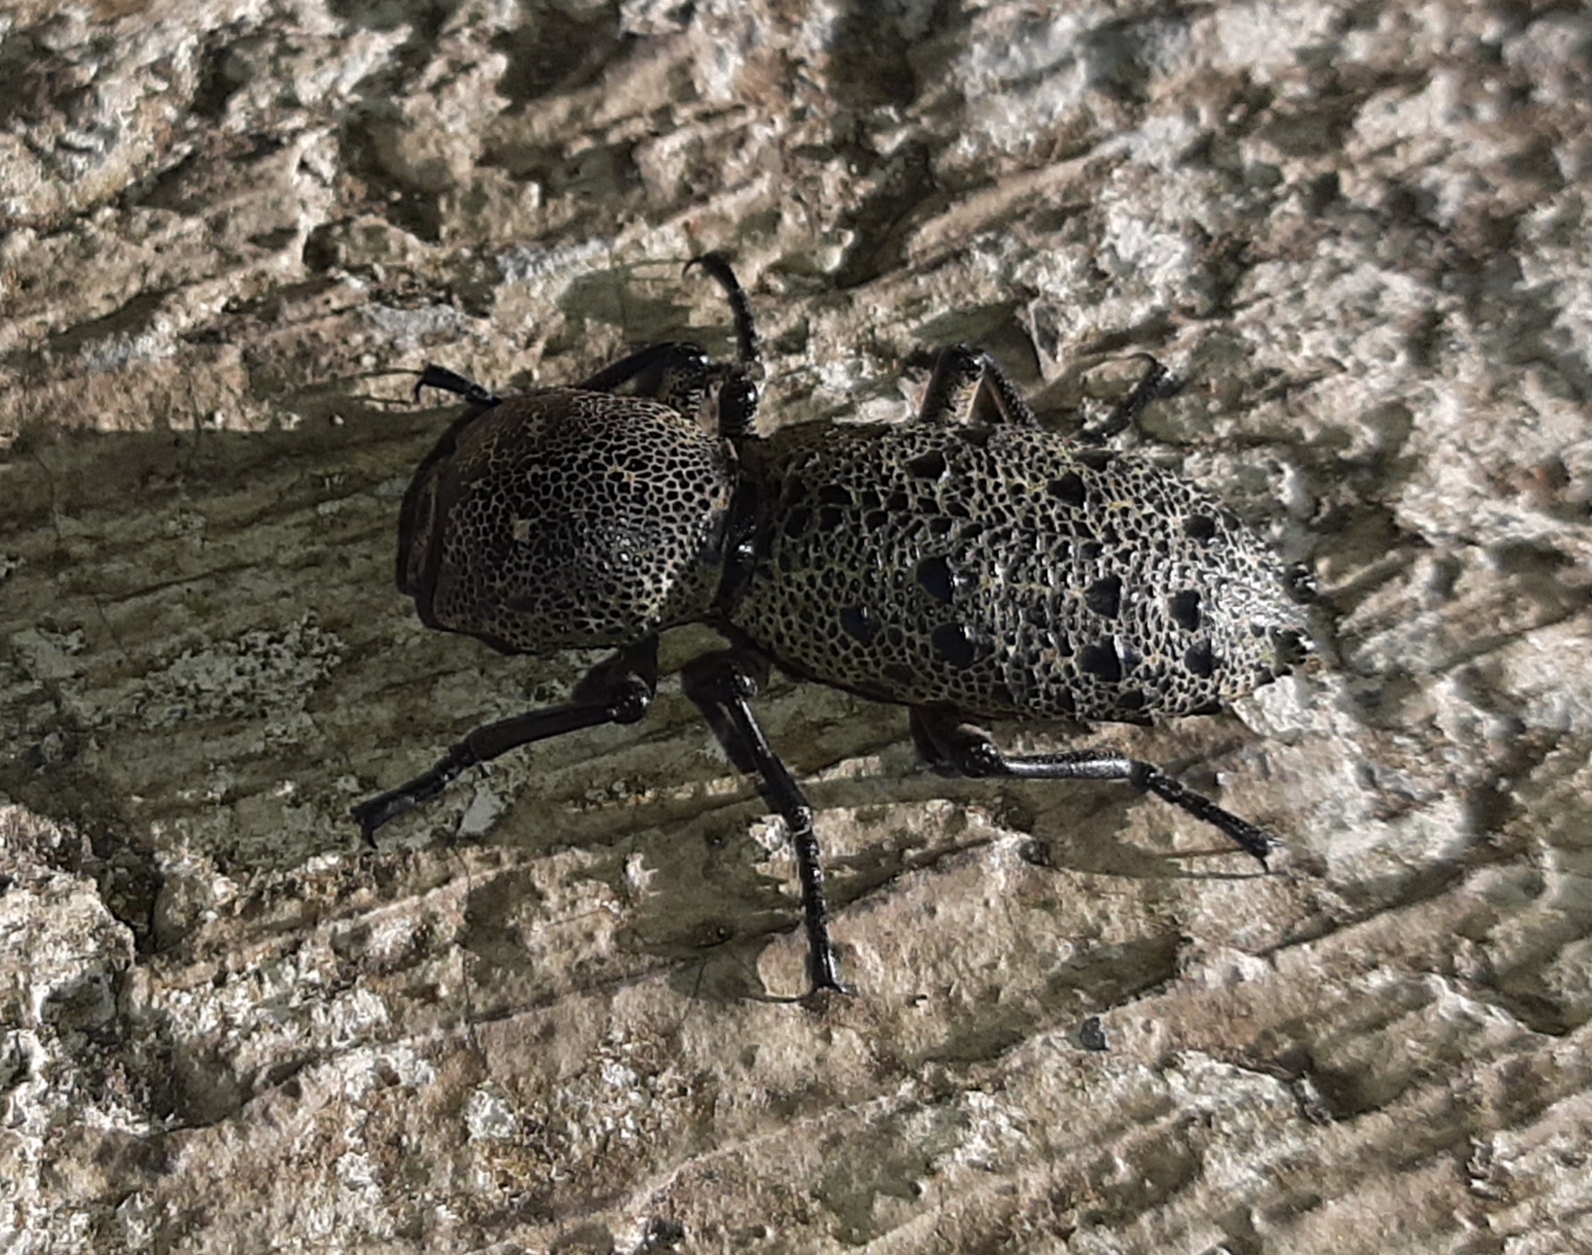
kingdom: Animalia
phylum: Arthropoda
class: Insecta
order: Coleoptera
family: Zopheridae
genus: Zopherus
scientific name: Zopherus
